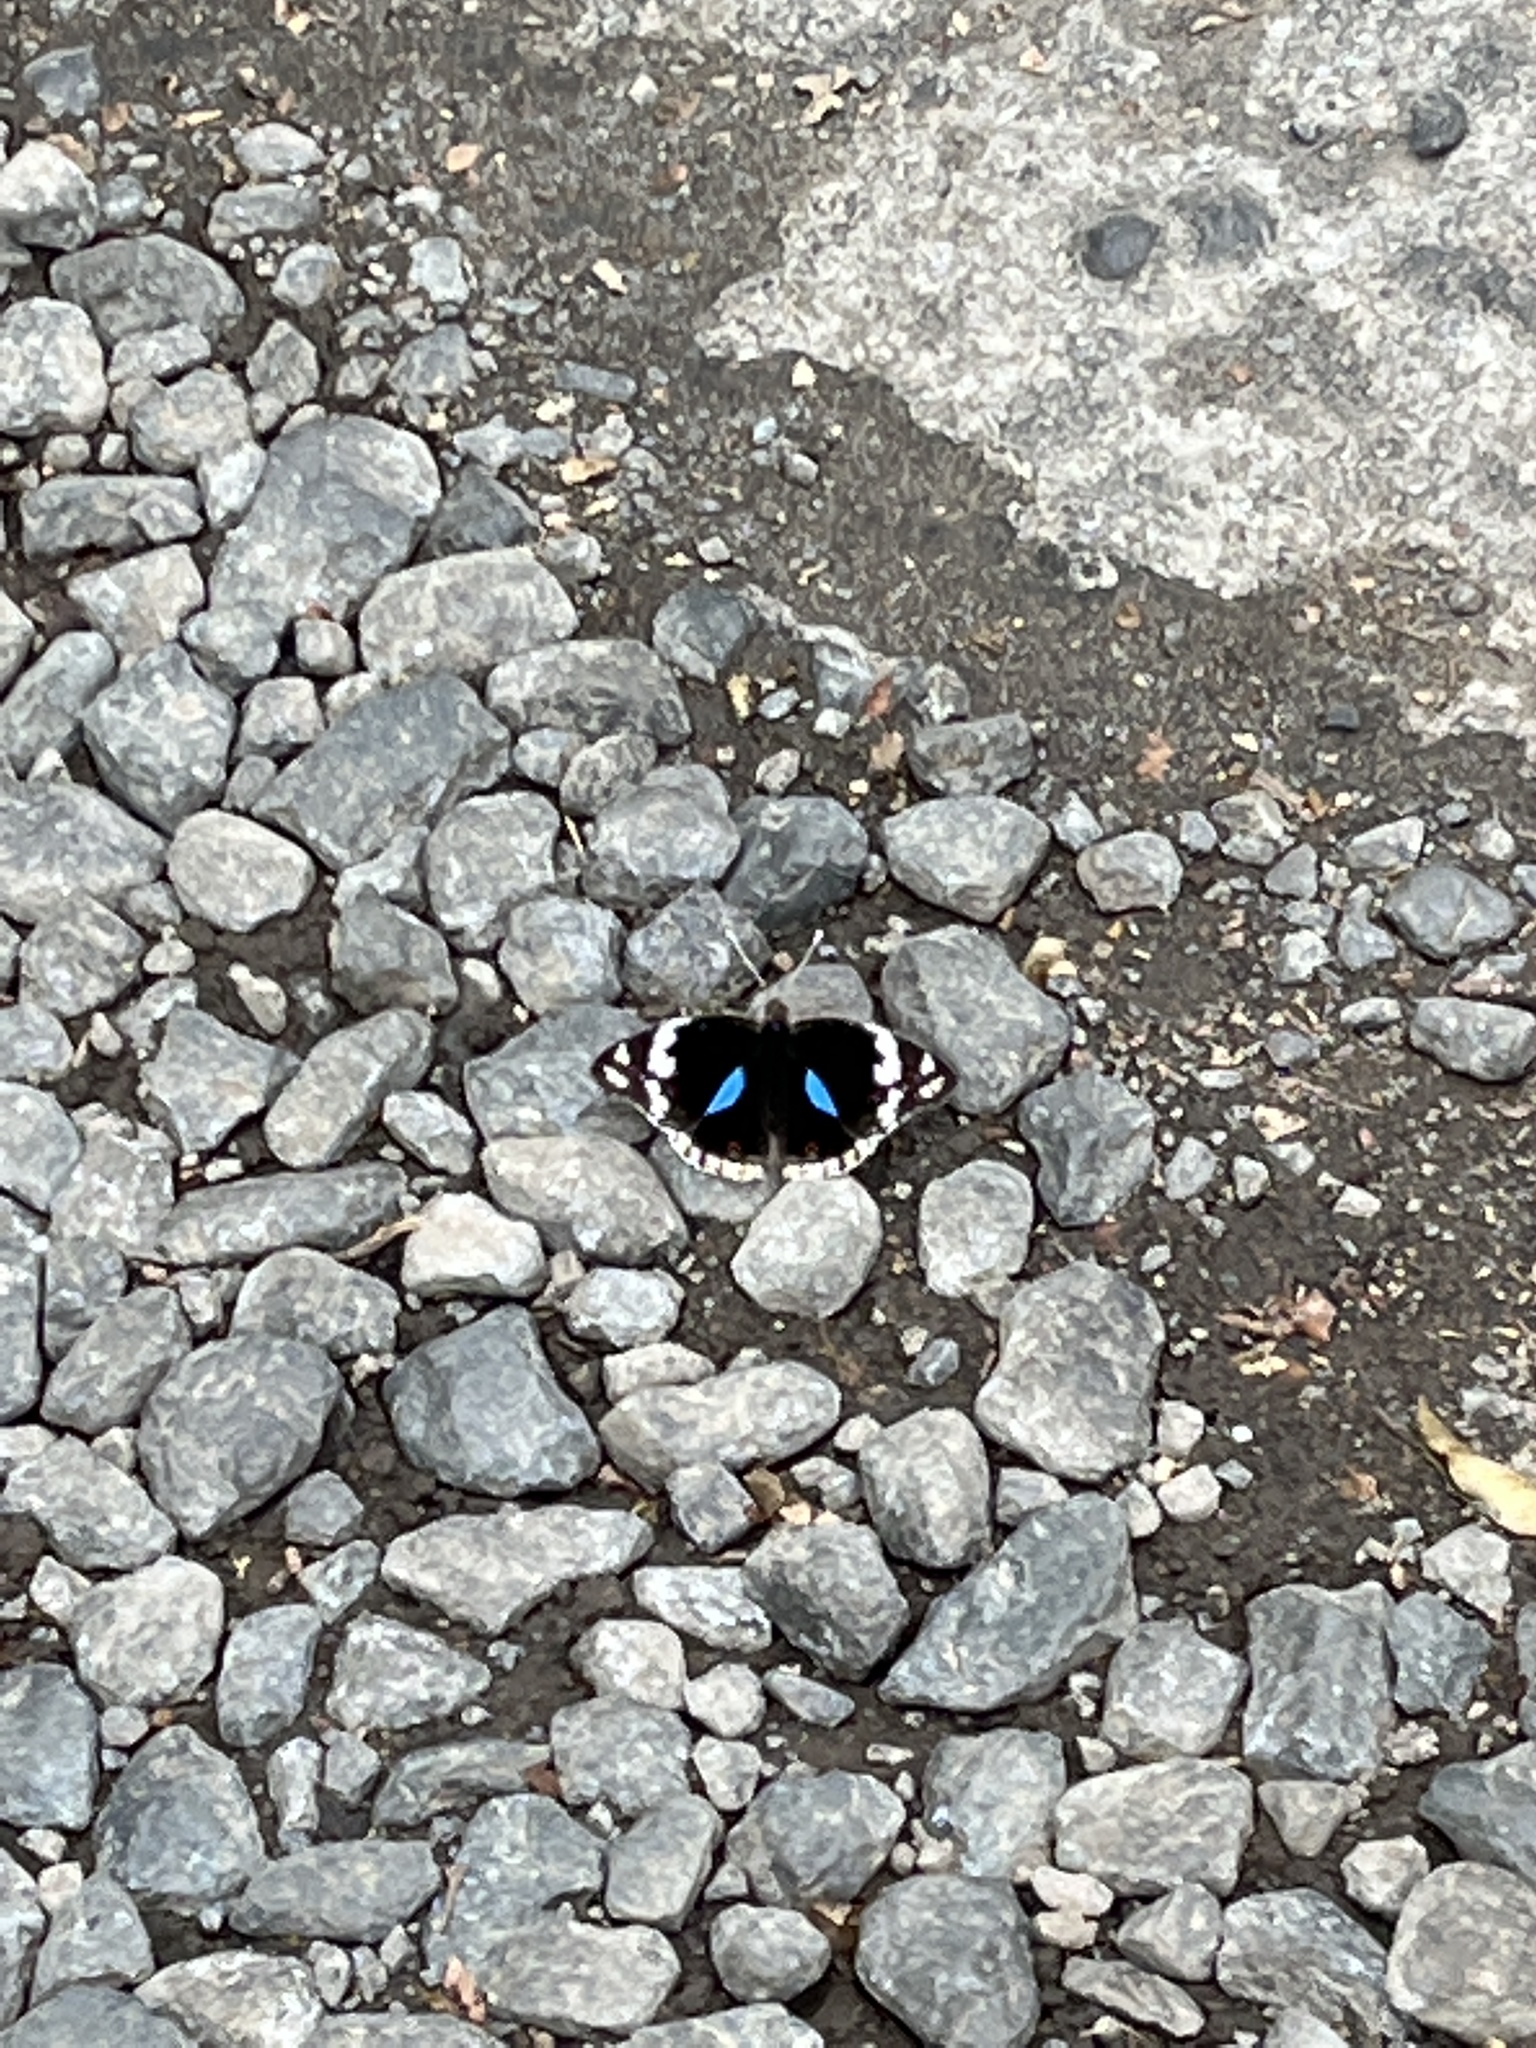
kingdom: Animalia
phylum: Arthropoda
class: Insecta
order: Lepidoptera
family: Nymphalidae
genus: Junonia
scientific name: Junonia oenone
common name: Dark blue pansy
